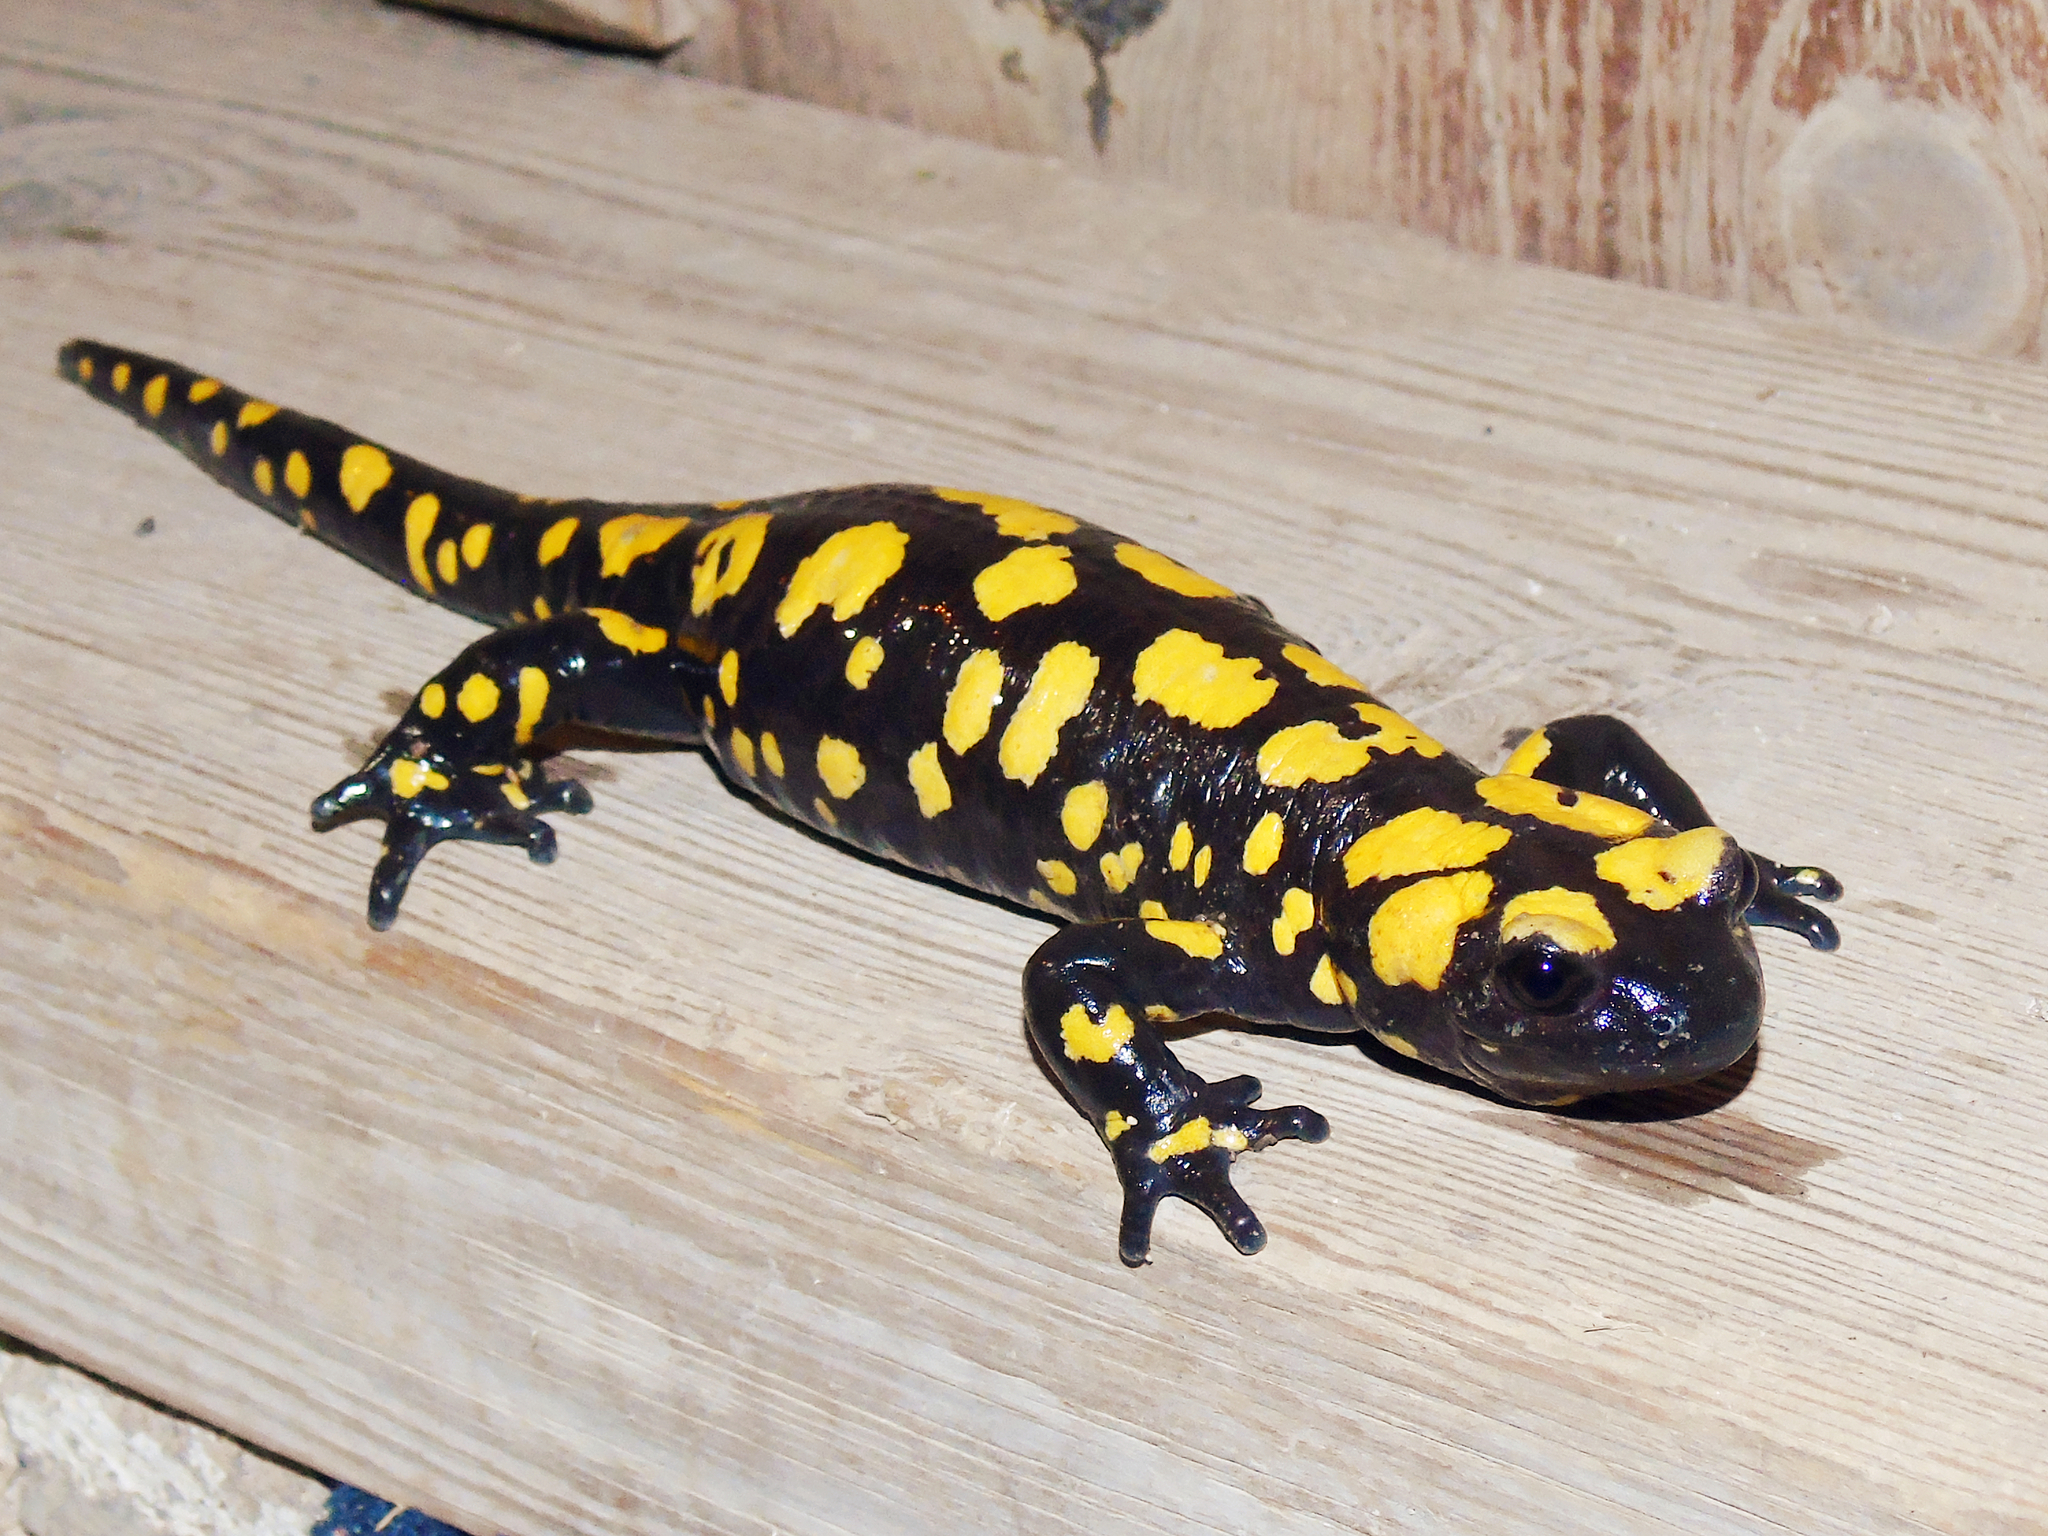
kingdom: Animalia
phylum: Chordata
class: Amphibia
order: Caudata
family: Salamandridae
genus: Salamandra
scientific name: Salamandra infraimmaculata
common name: Near-eastern fire salamander
